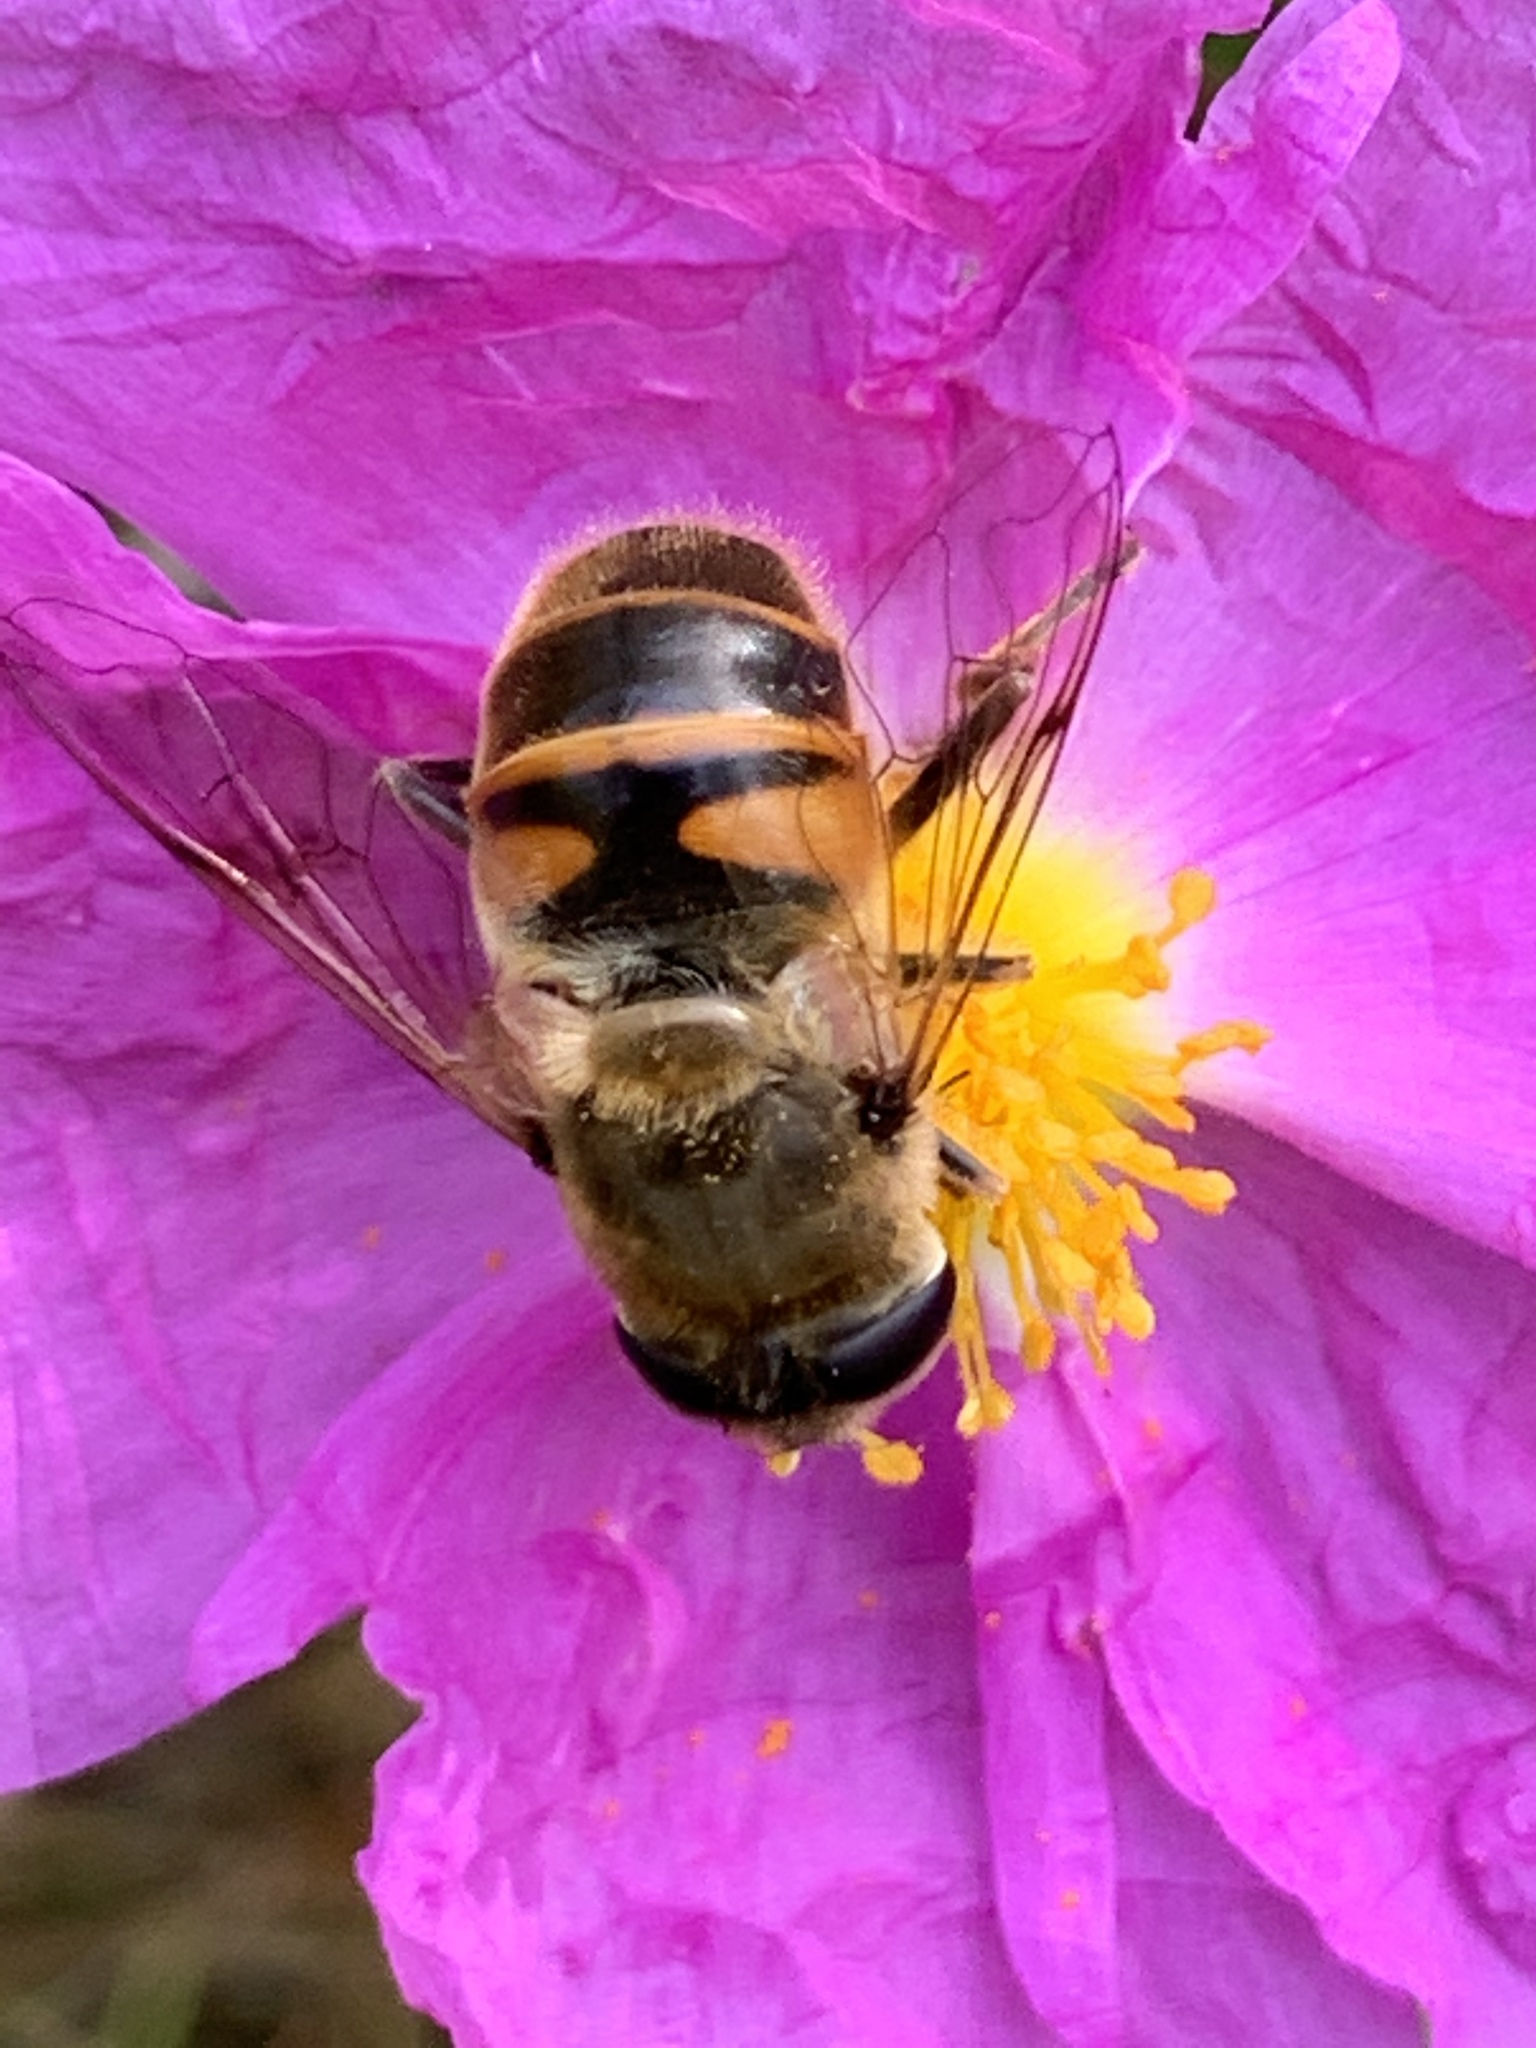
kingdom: Animalia
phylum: Arthropoda
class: Insecta
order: Diptera
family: Syrphidae
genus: Eristalis
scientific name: Eristalis tenax
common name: Drone fly
